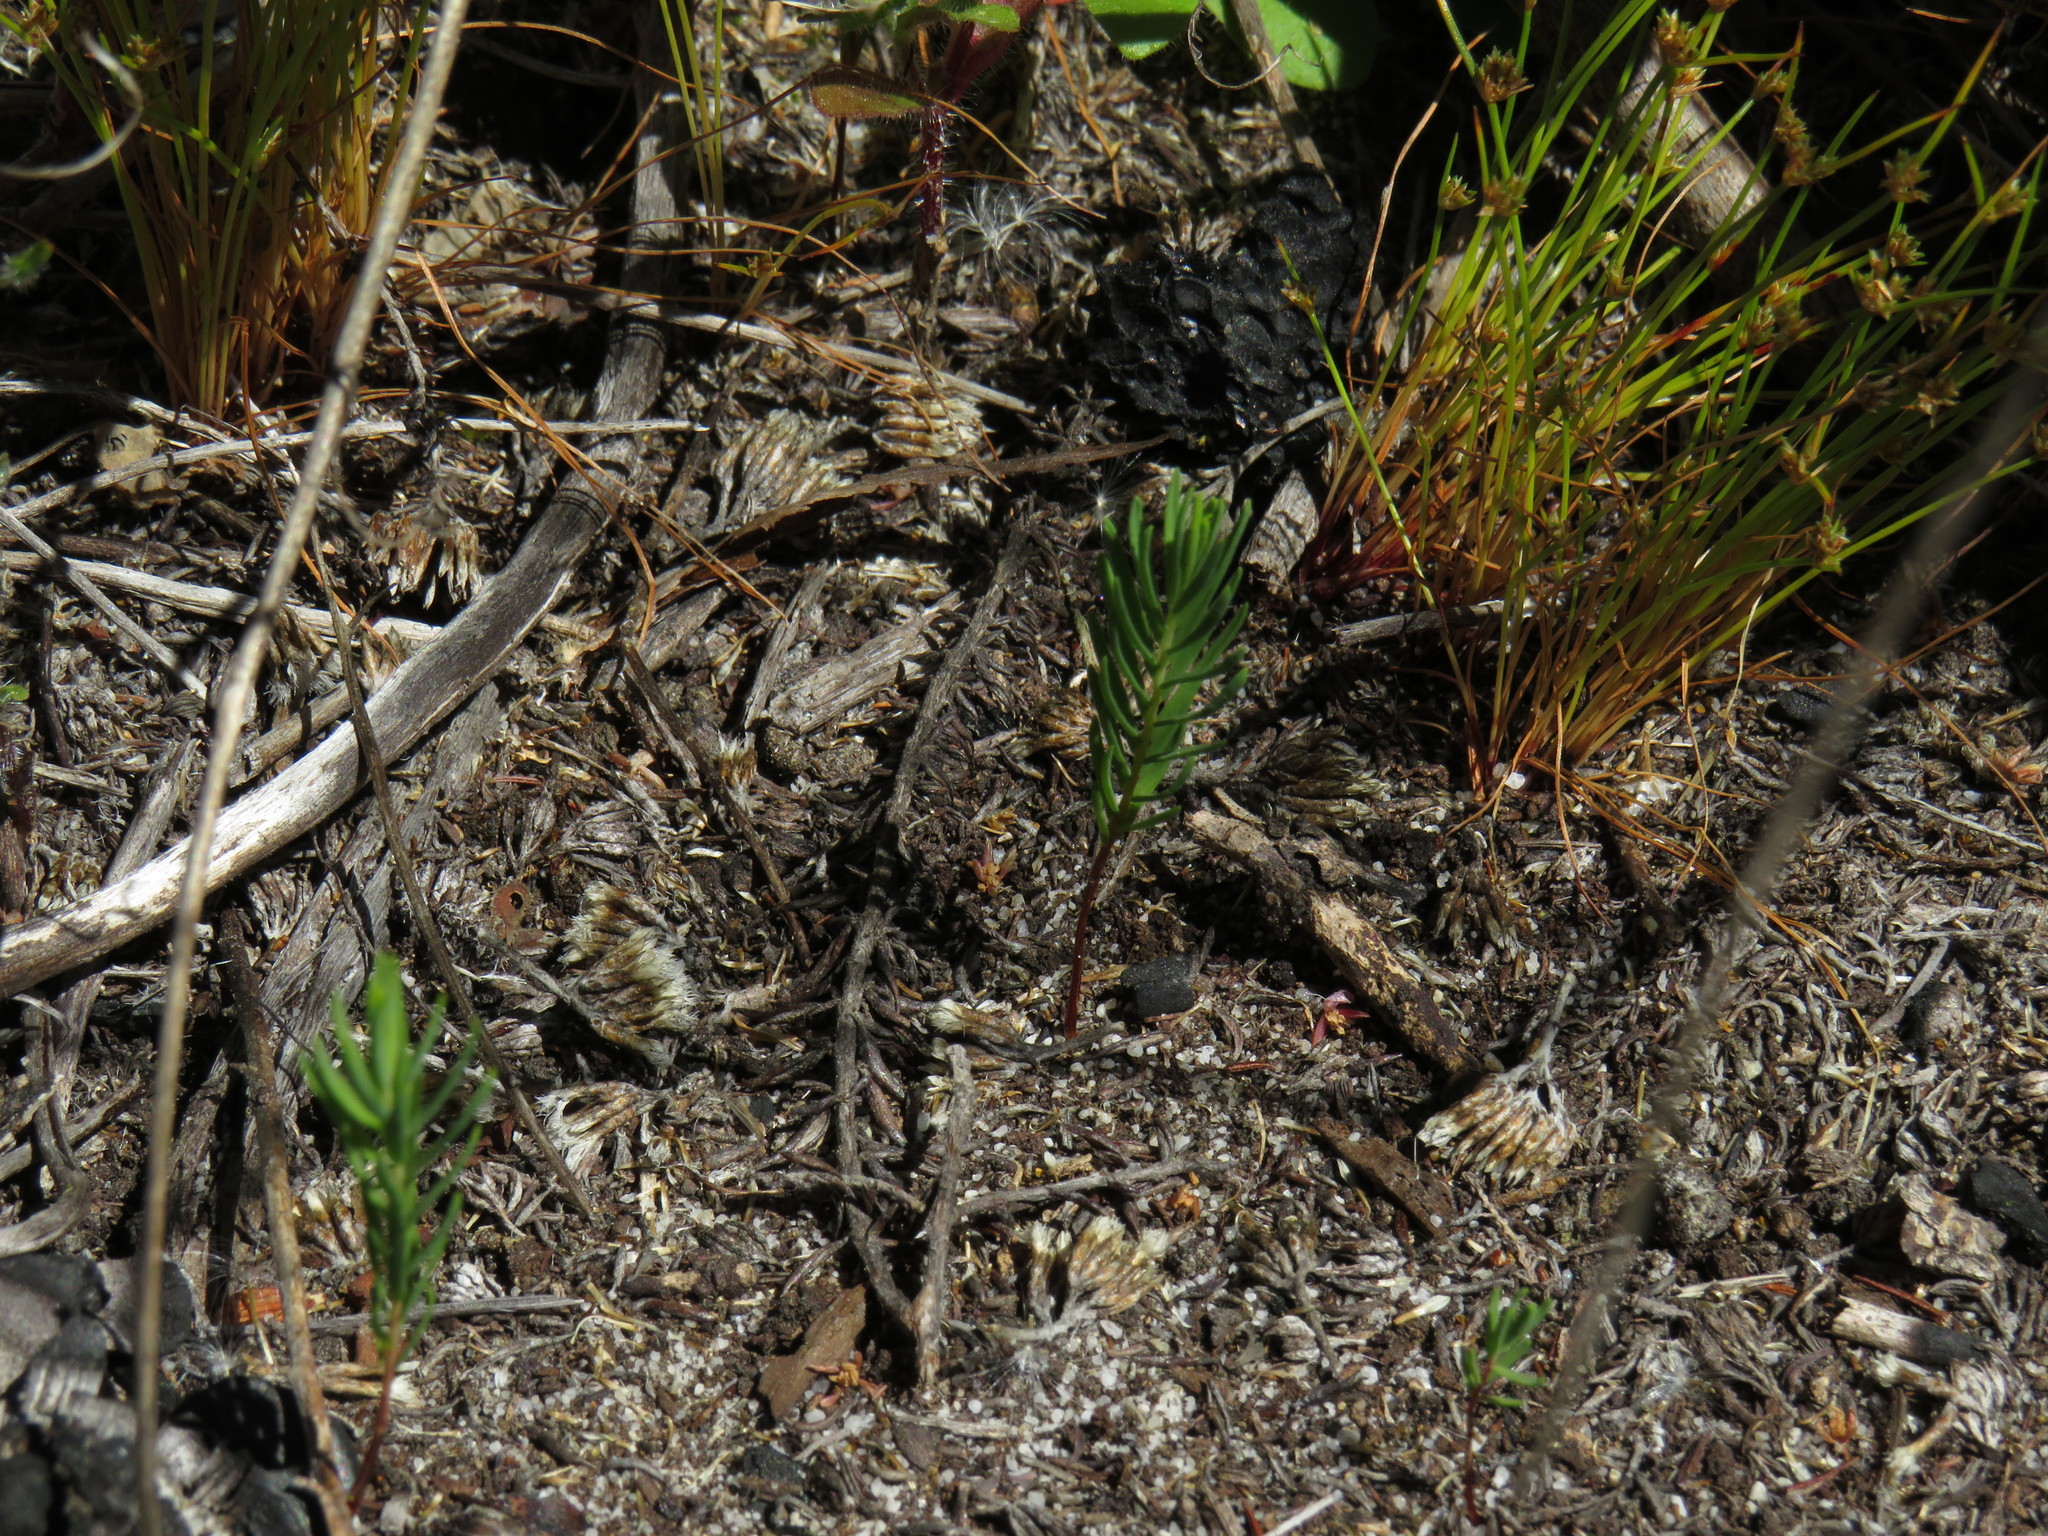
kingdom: Plantae
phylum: Tracheophyta
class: Magnoliopsida
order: Malvales
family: Thymelaeaceae
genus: Passerina
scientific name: Passerina corymbosa
